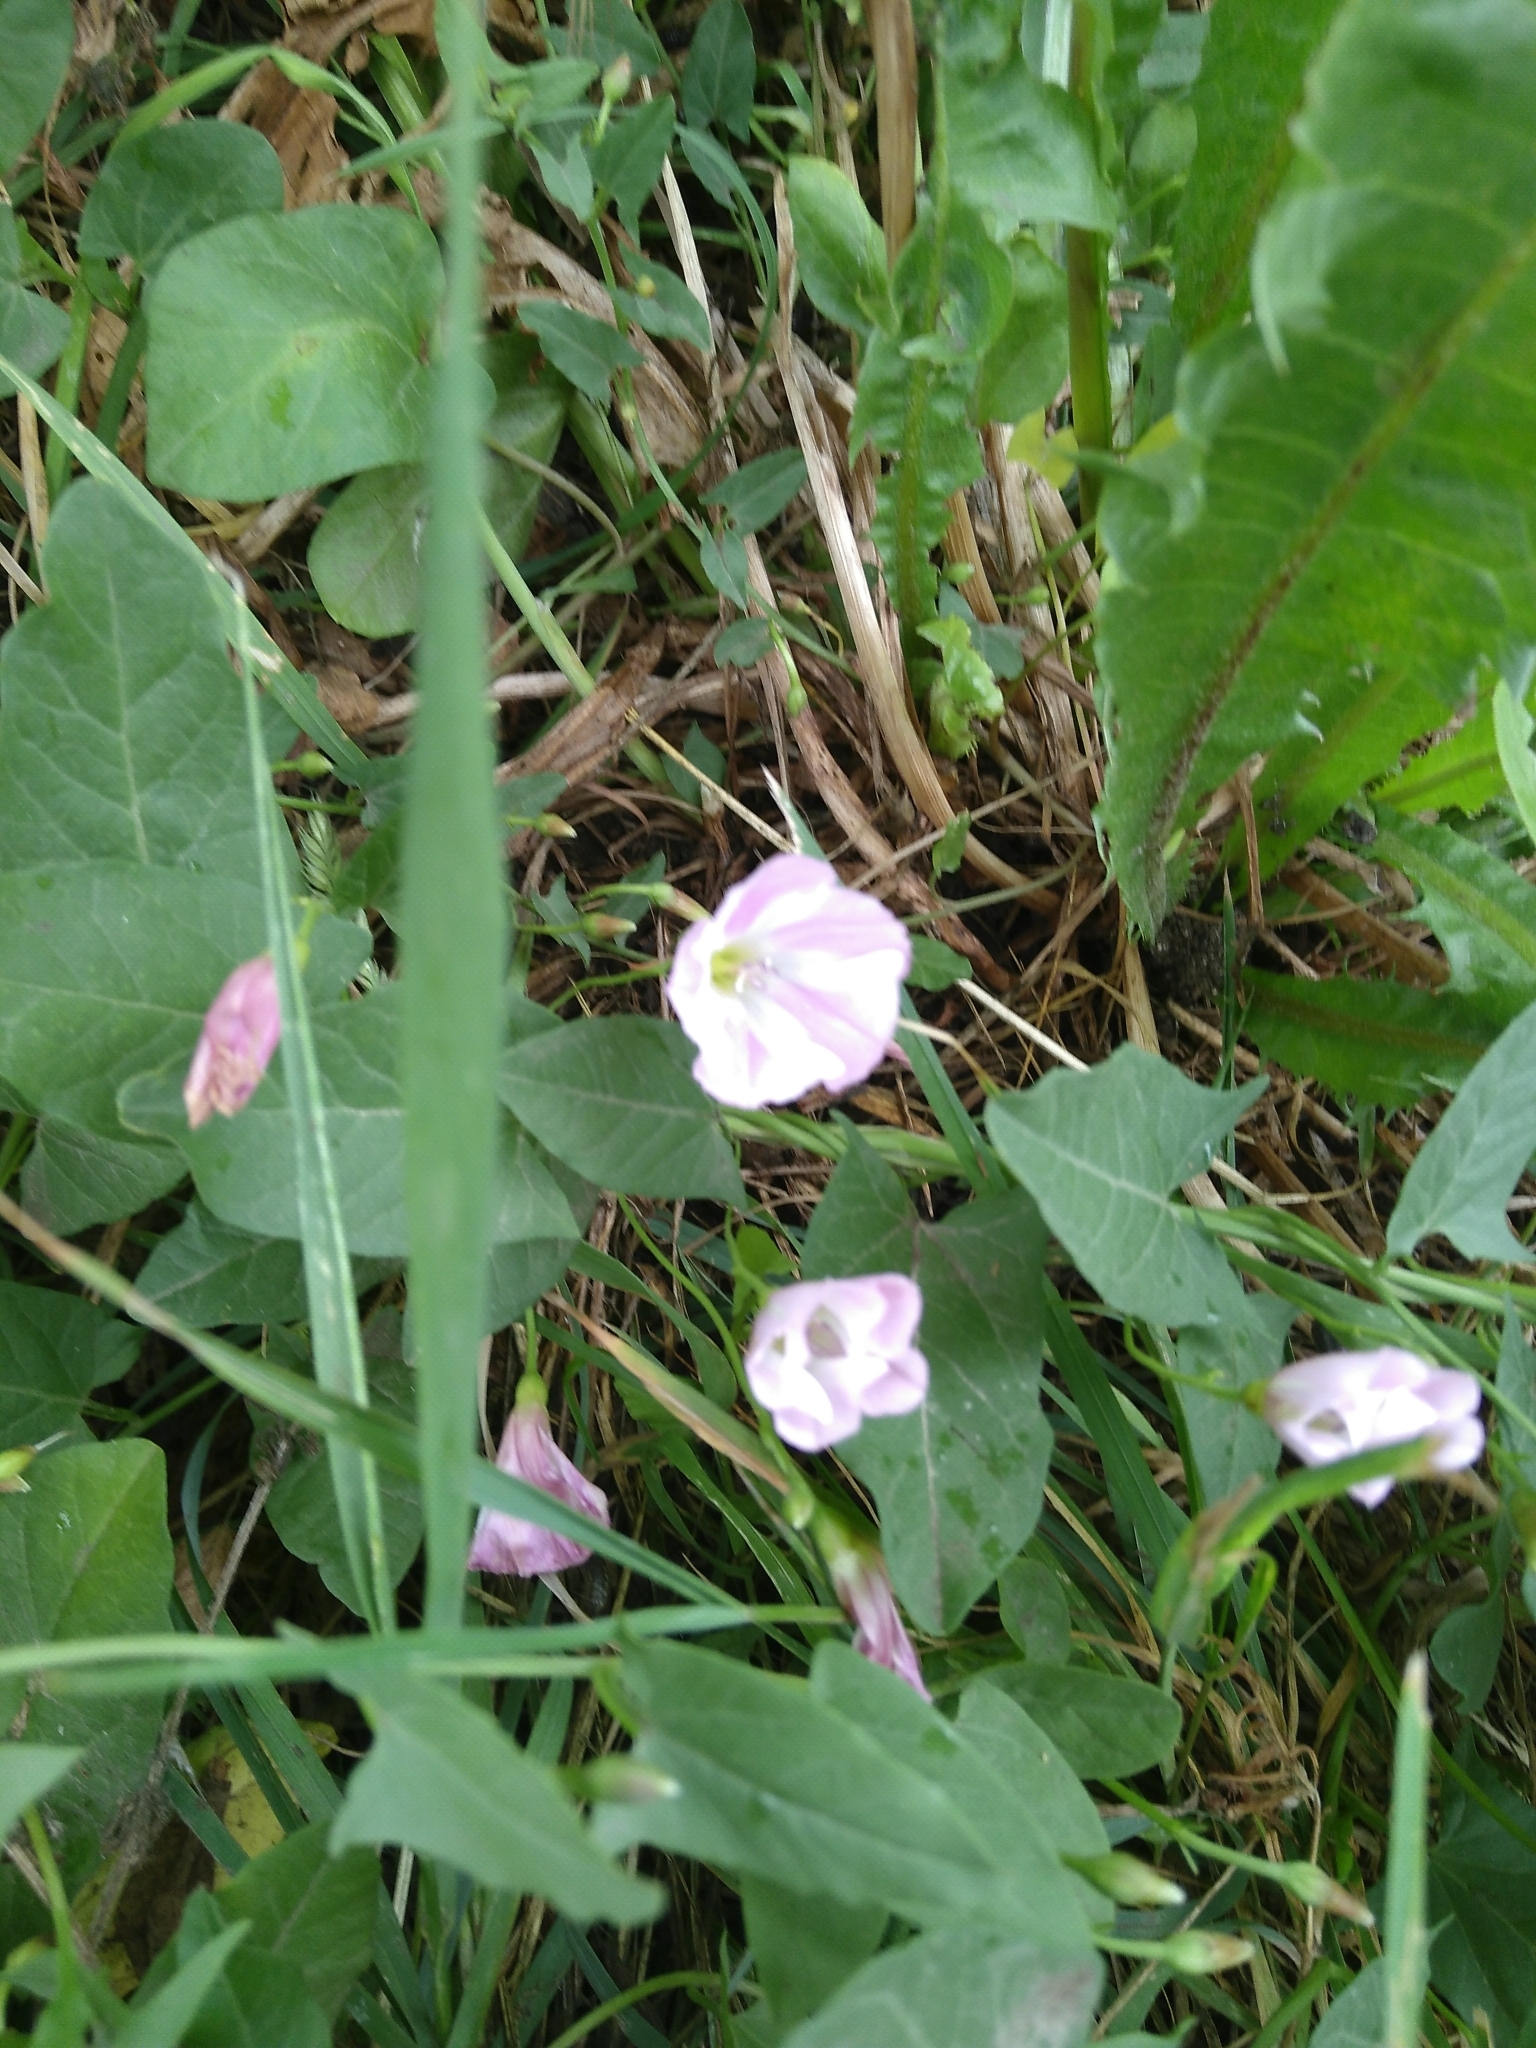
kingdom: Plantae
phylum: Tracheophyta
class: Magnoliopsida
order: Solanales
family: Convolvulaceae
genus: Convolvulus
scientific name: Convolvulus arvensis
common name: Field bindweed
